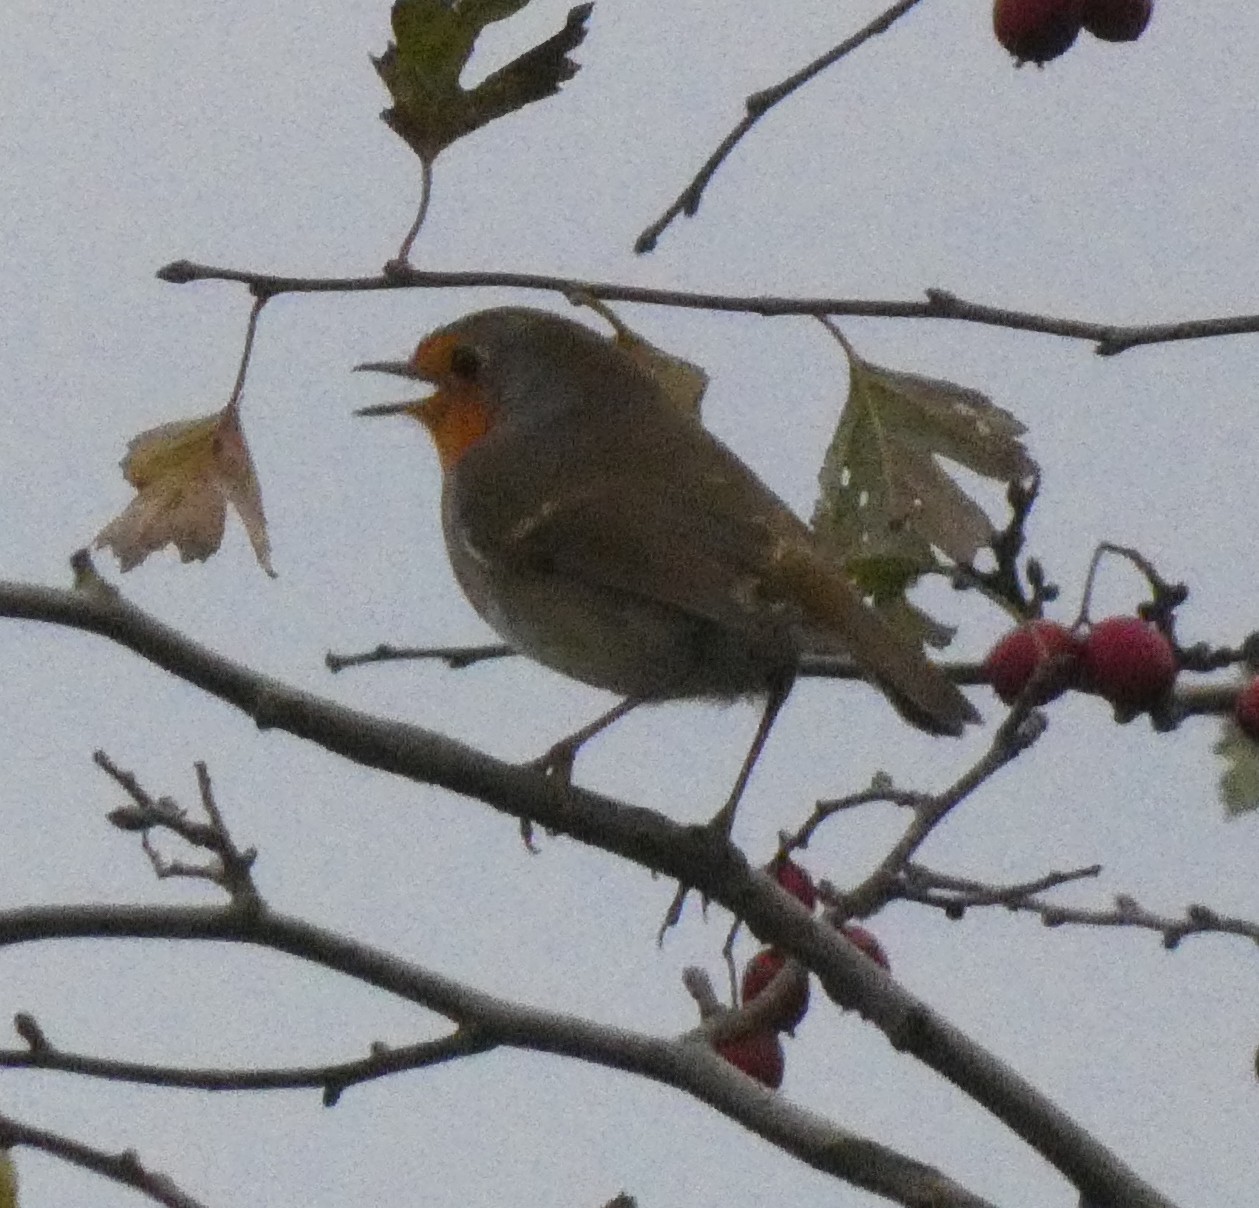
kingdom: Animalia
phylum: Chordata
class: Aves
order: Passeriformes
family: Muscicapidae
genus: Erithacus
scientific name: Erithacus rubecula
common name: European robin
